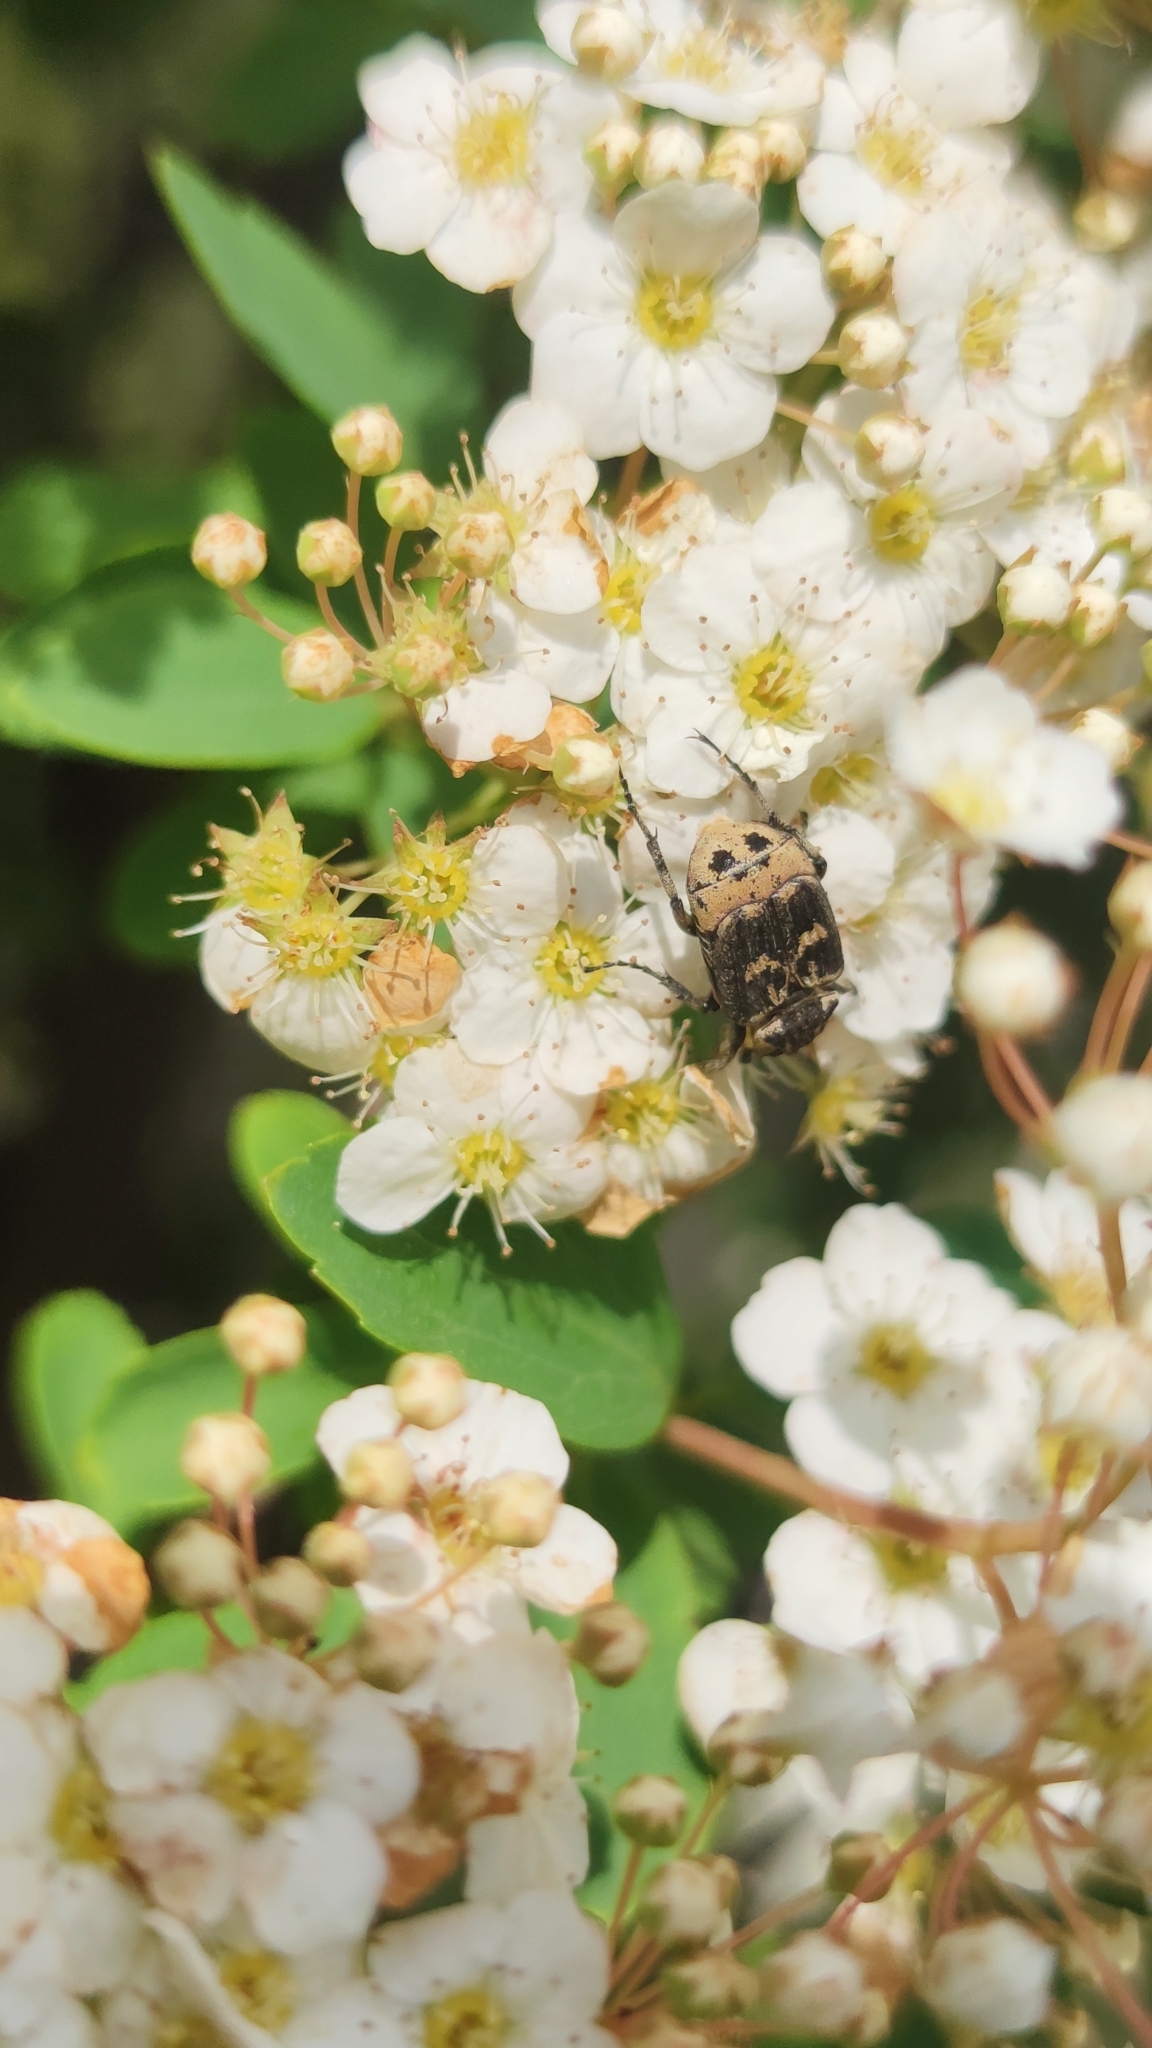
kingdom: Animalia
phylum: Arthropoda
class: Insecta
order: Coleoptera
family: Scarabaeidae
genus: Valgus
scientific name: Valgus hemipterus
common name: Bug flower chafer
